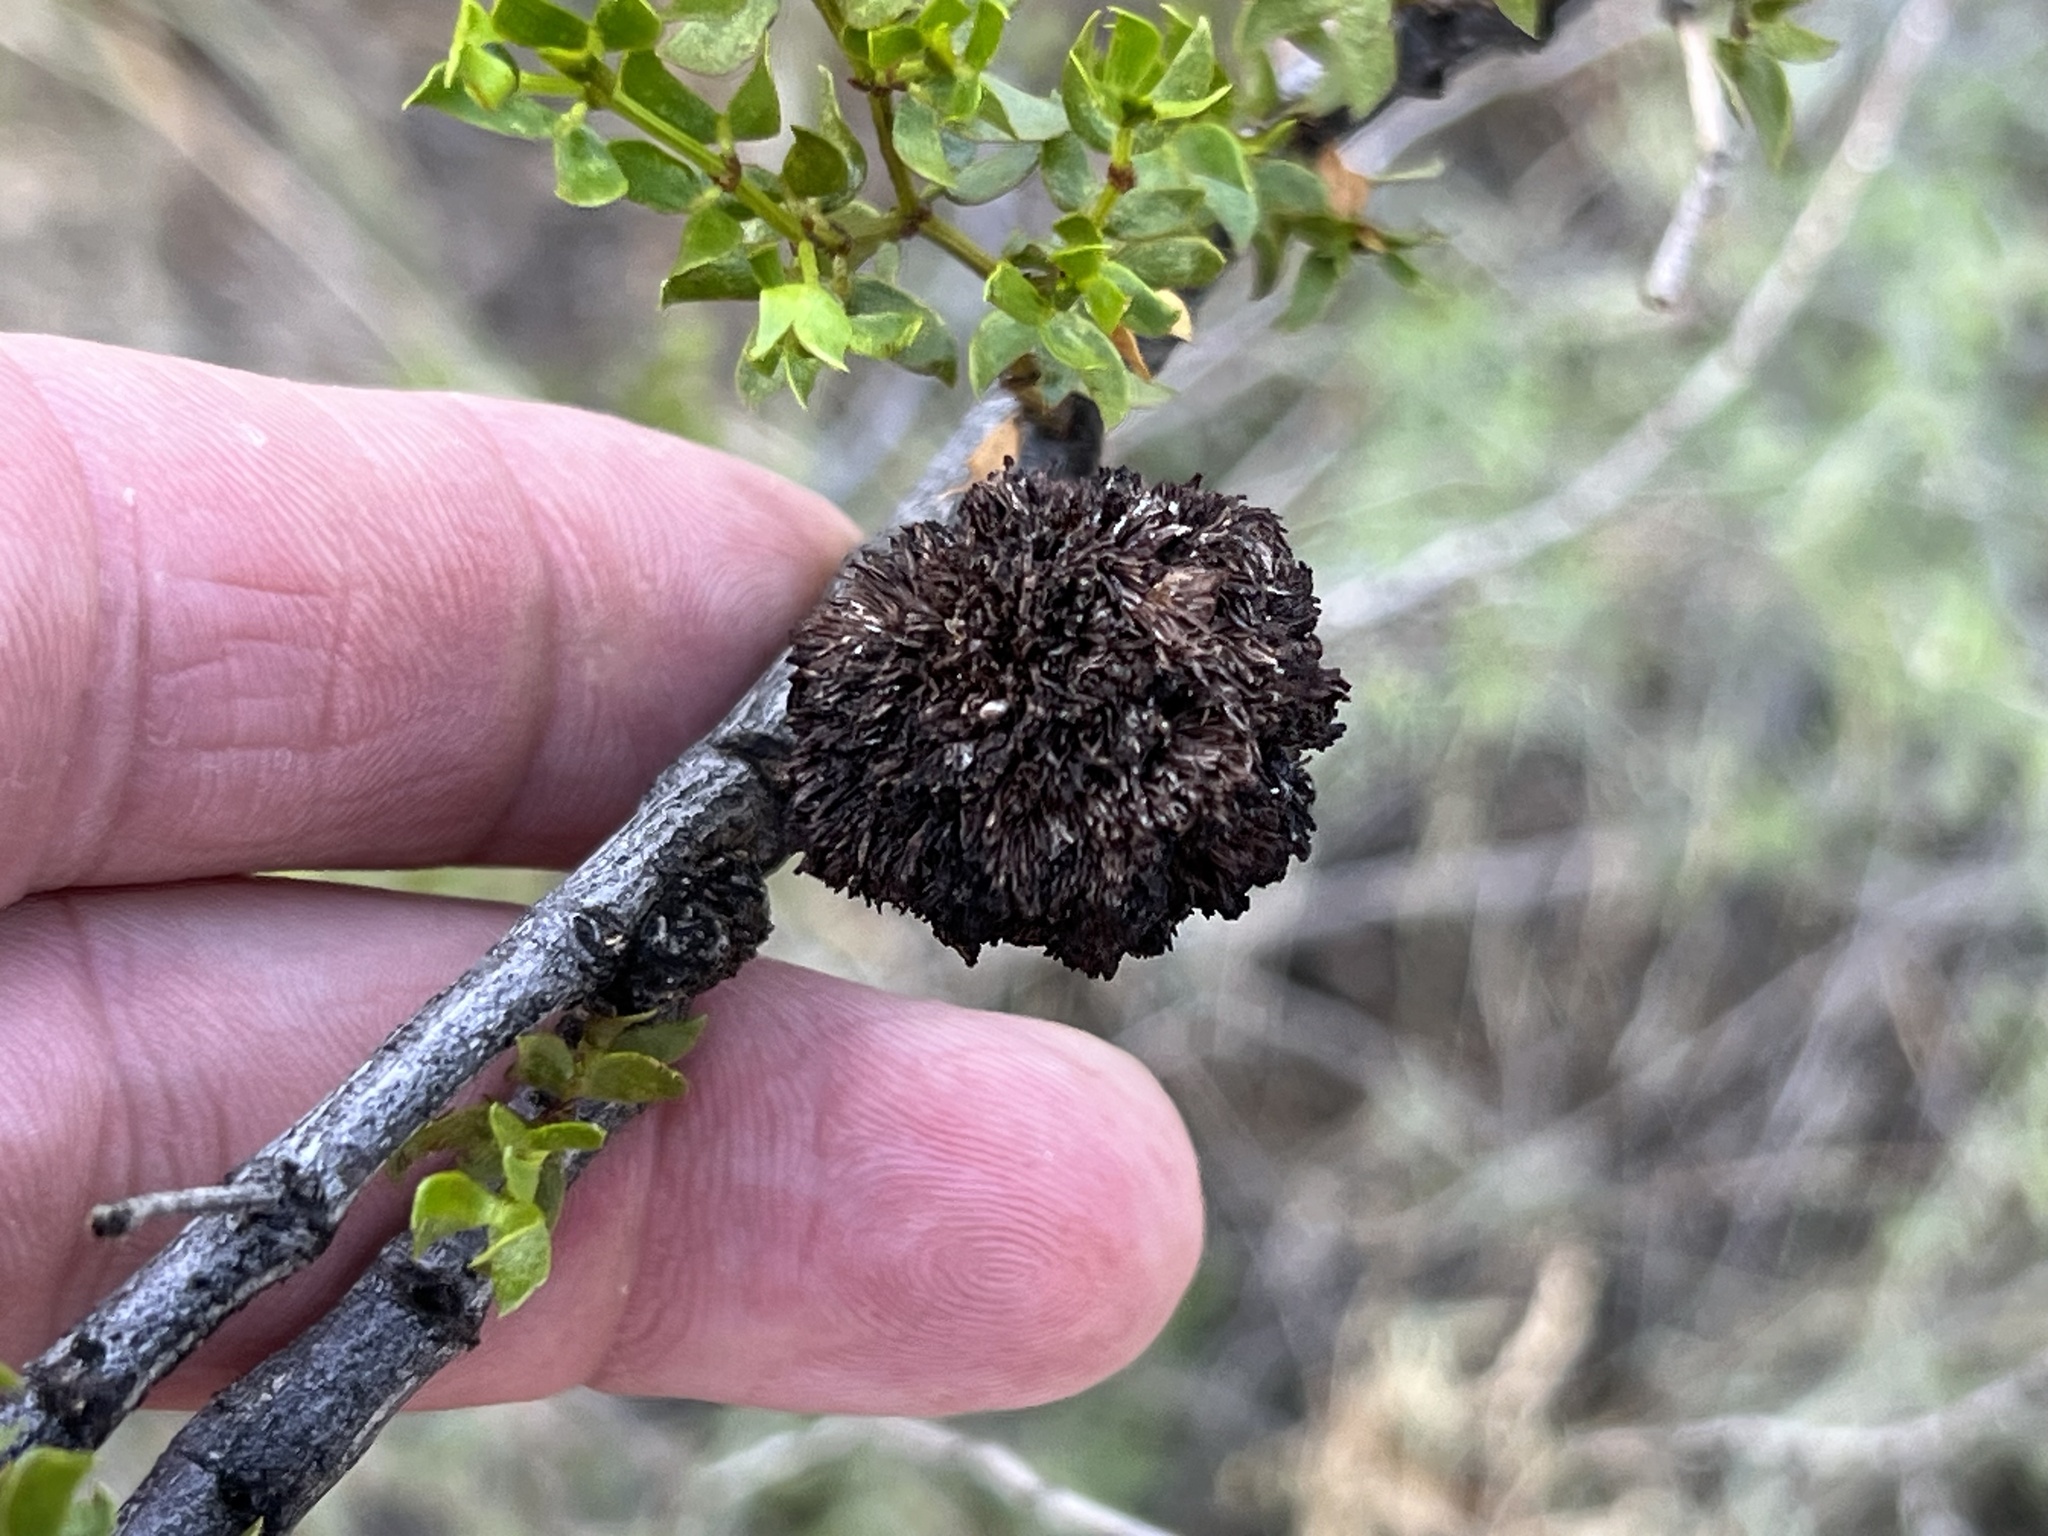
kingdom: Animalia
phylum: Arthropoda
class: Insecta
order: Diptera
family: Cecidomyiidae
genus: Asphondylia
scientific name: Asphondylia auripila
